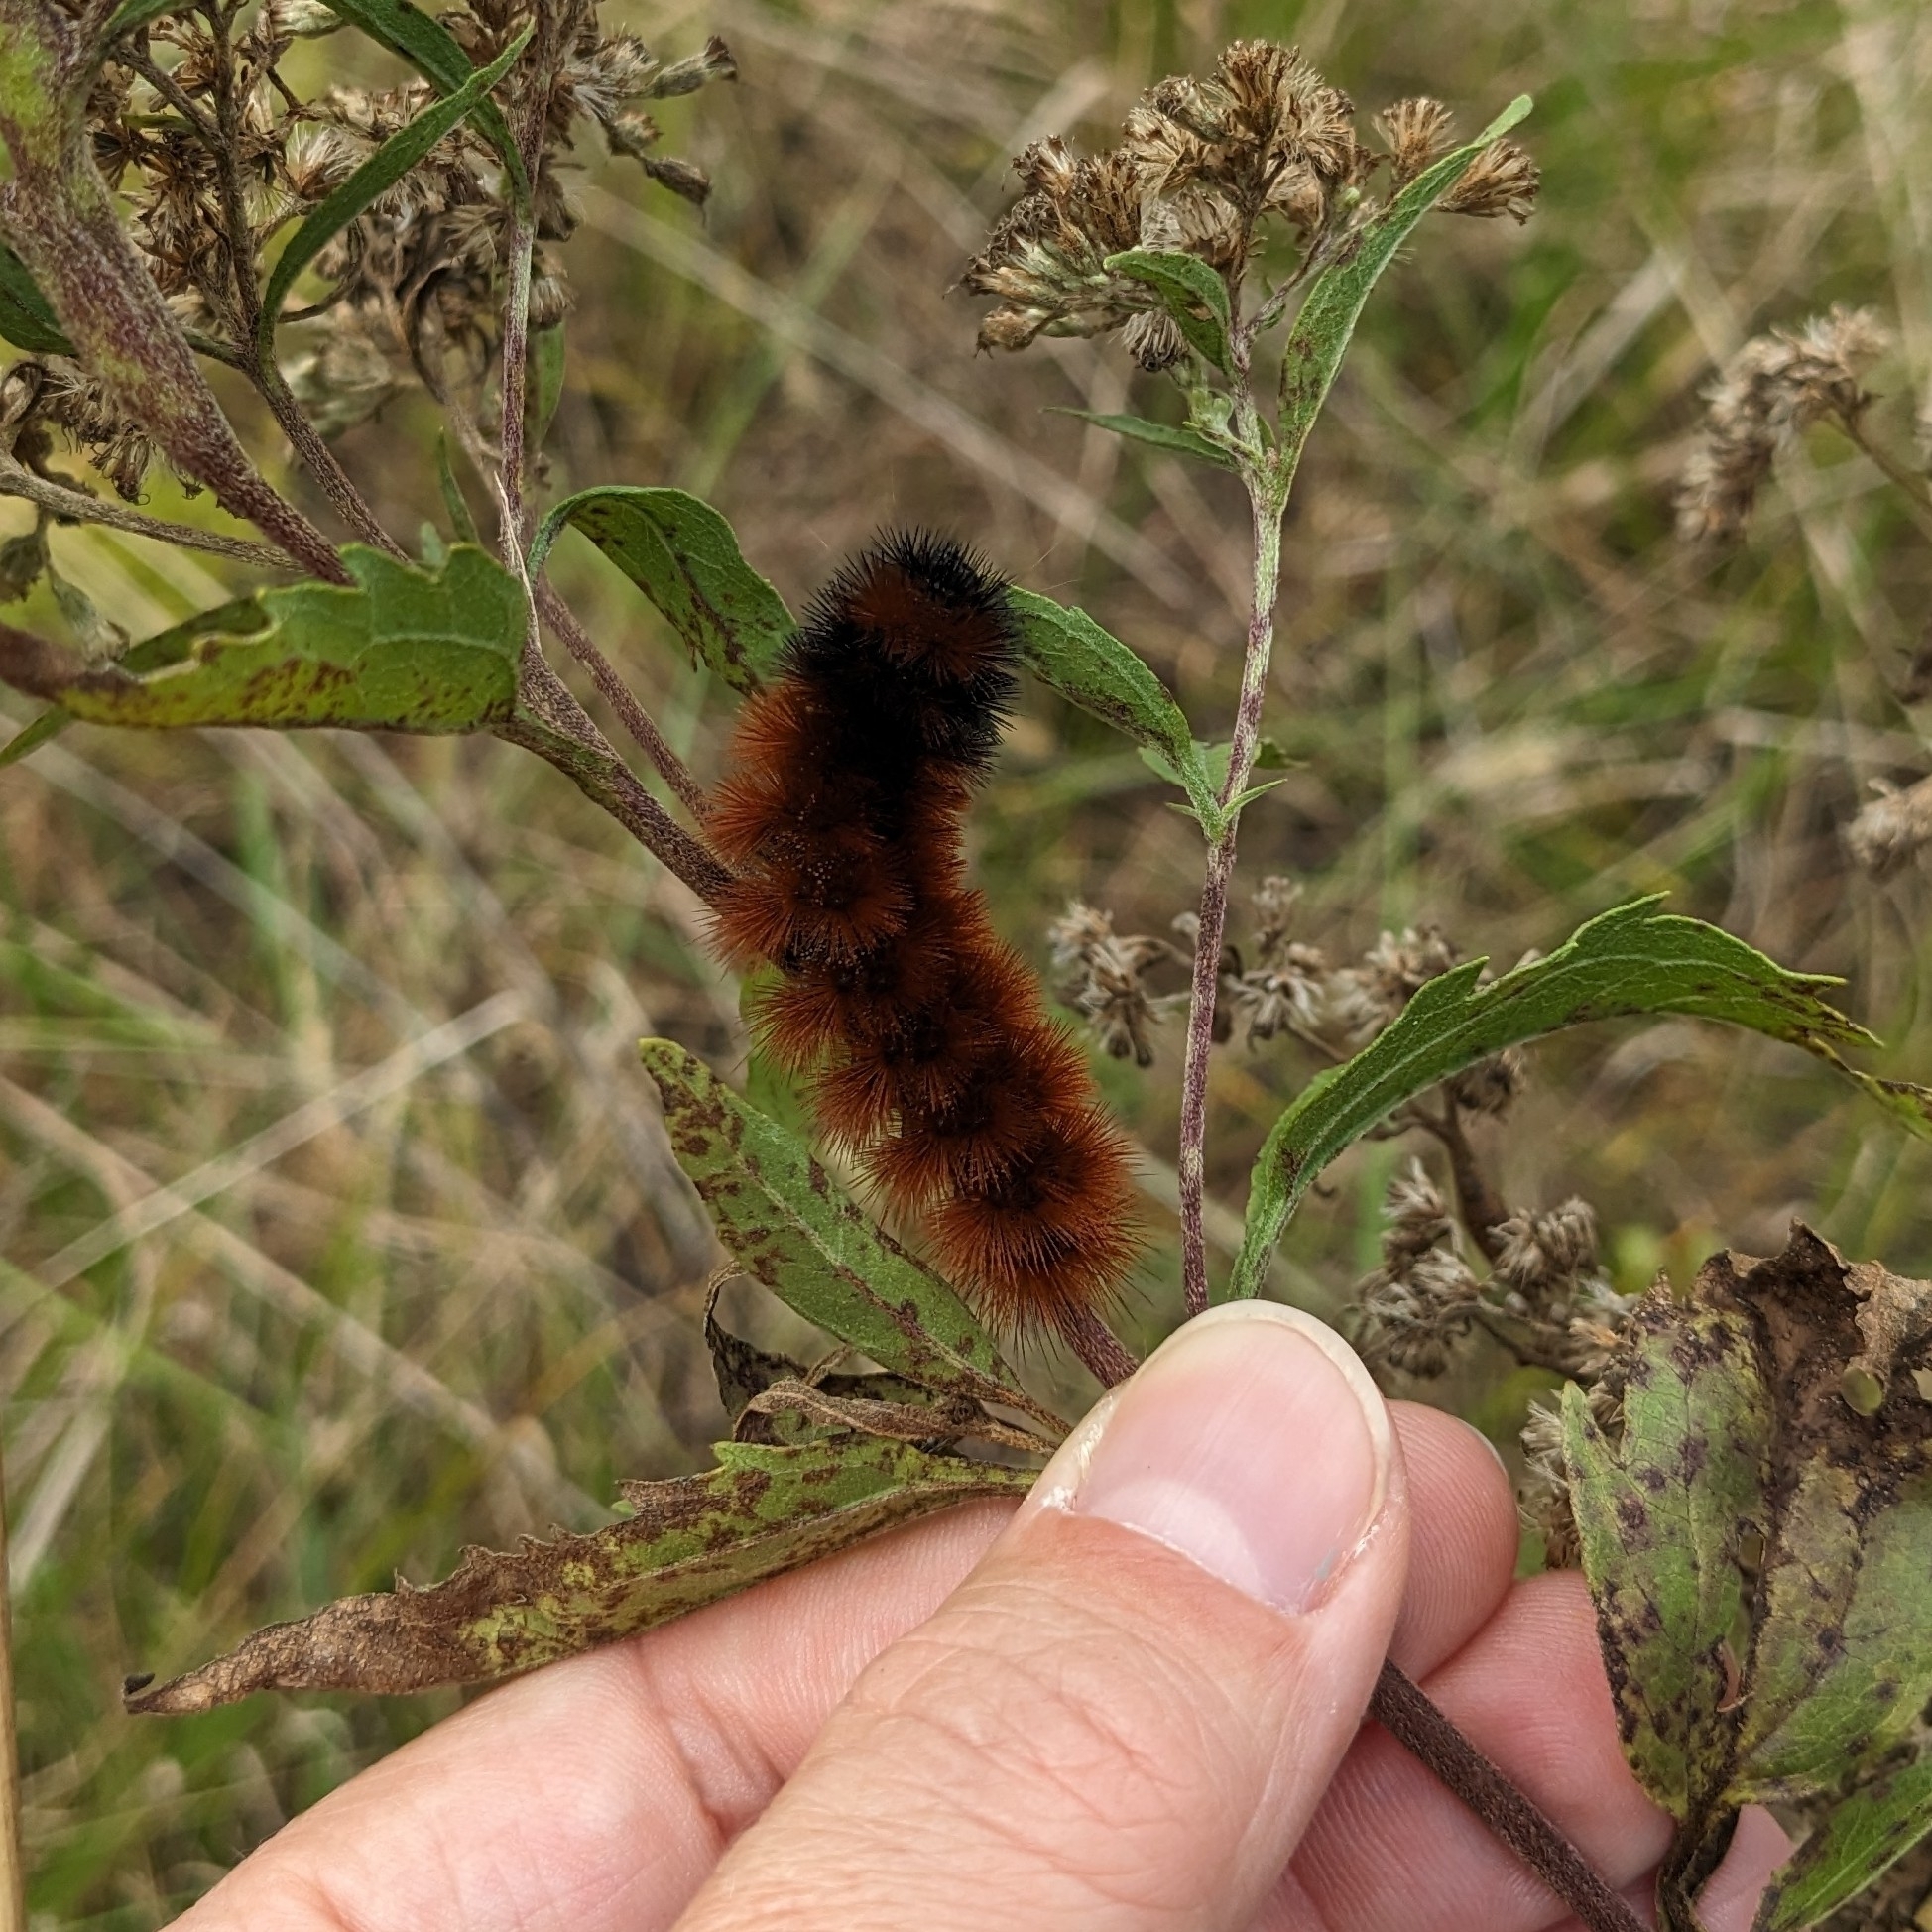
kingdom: Animalia
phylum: Arthropoda
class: Insecta
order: Lepidoptera
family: Erebidae
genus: Pyrrharctia
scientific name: Pyrrharctia isabella
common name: Isabella tiger moth
